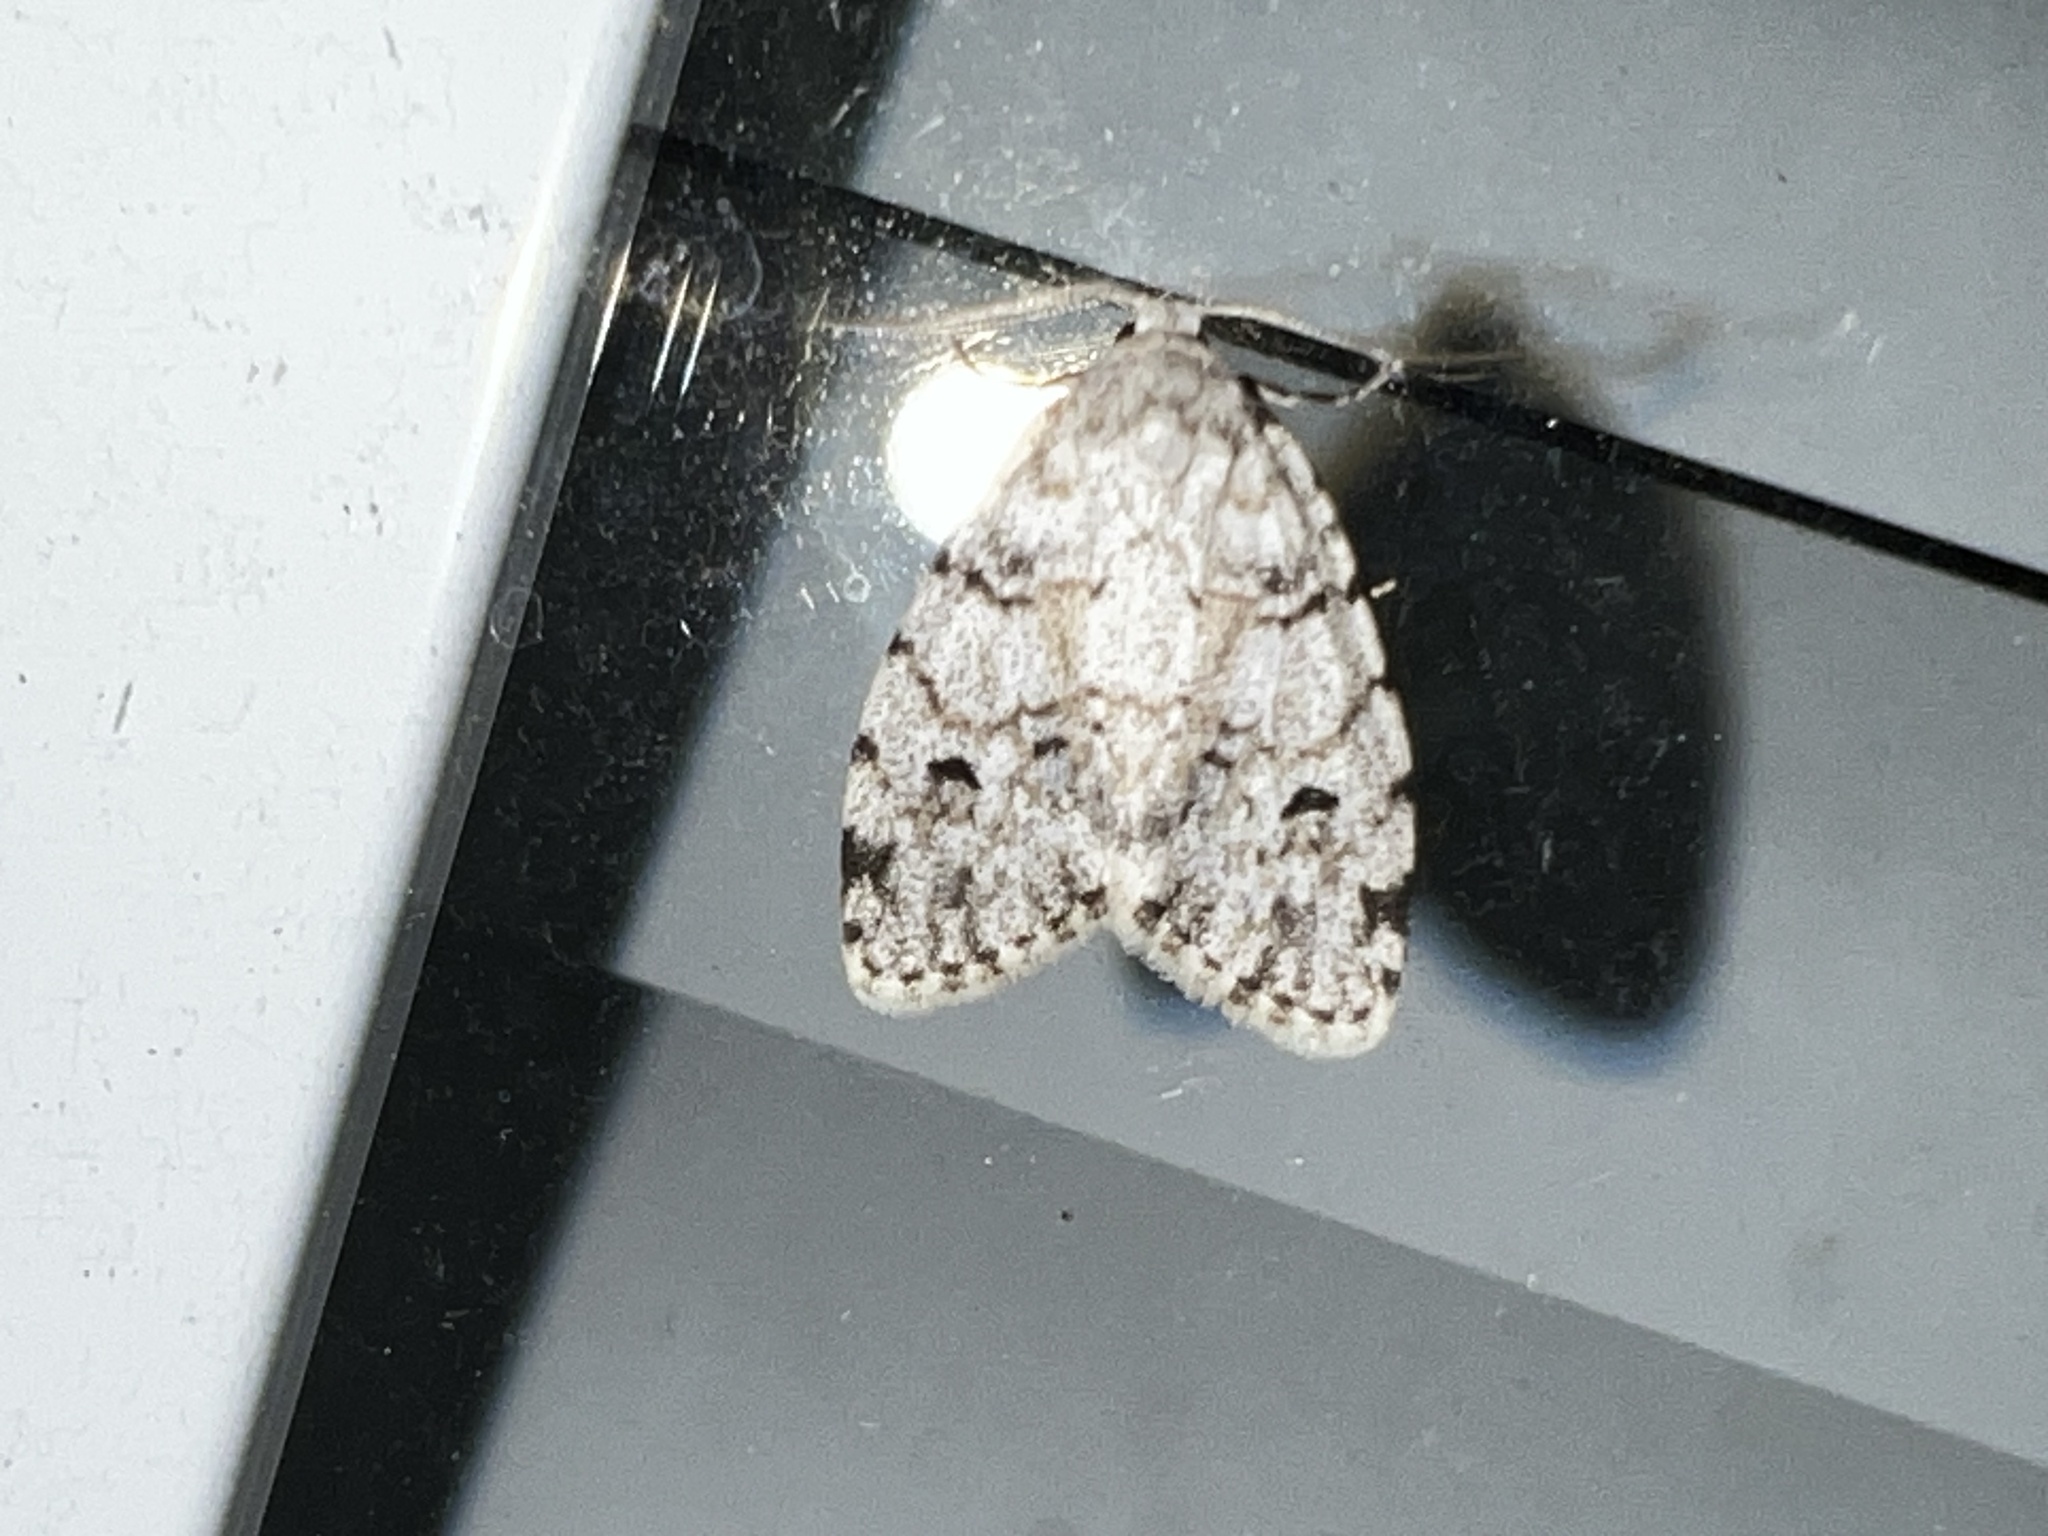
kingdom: Animalia
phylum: Arthropoda
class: Insecta
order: Lepidoptera
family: Erebidae
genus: Clemensia
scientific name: Clemensia albata
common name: Little white lichen moth
